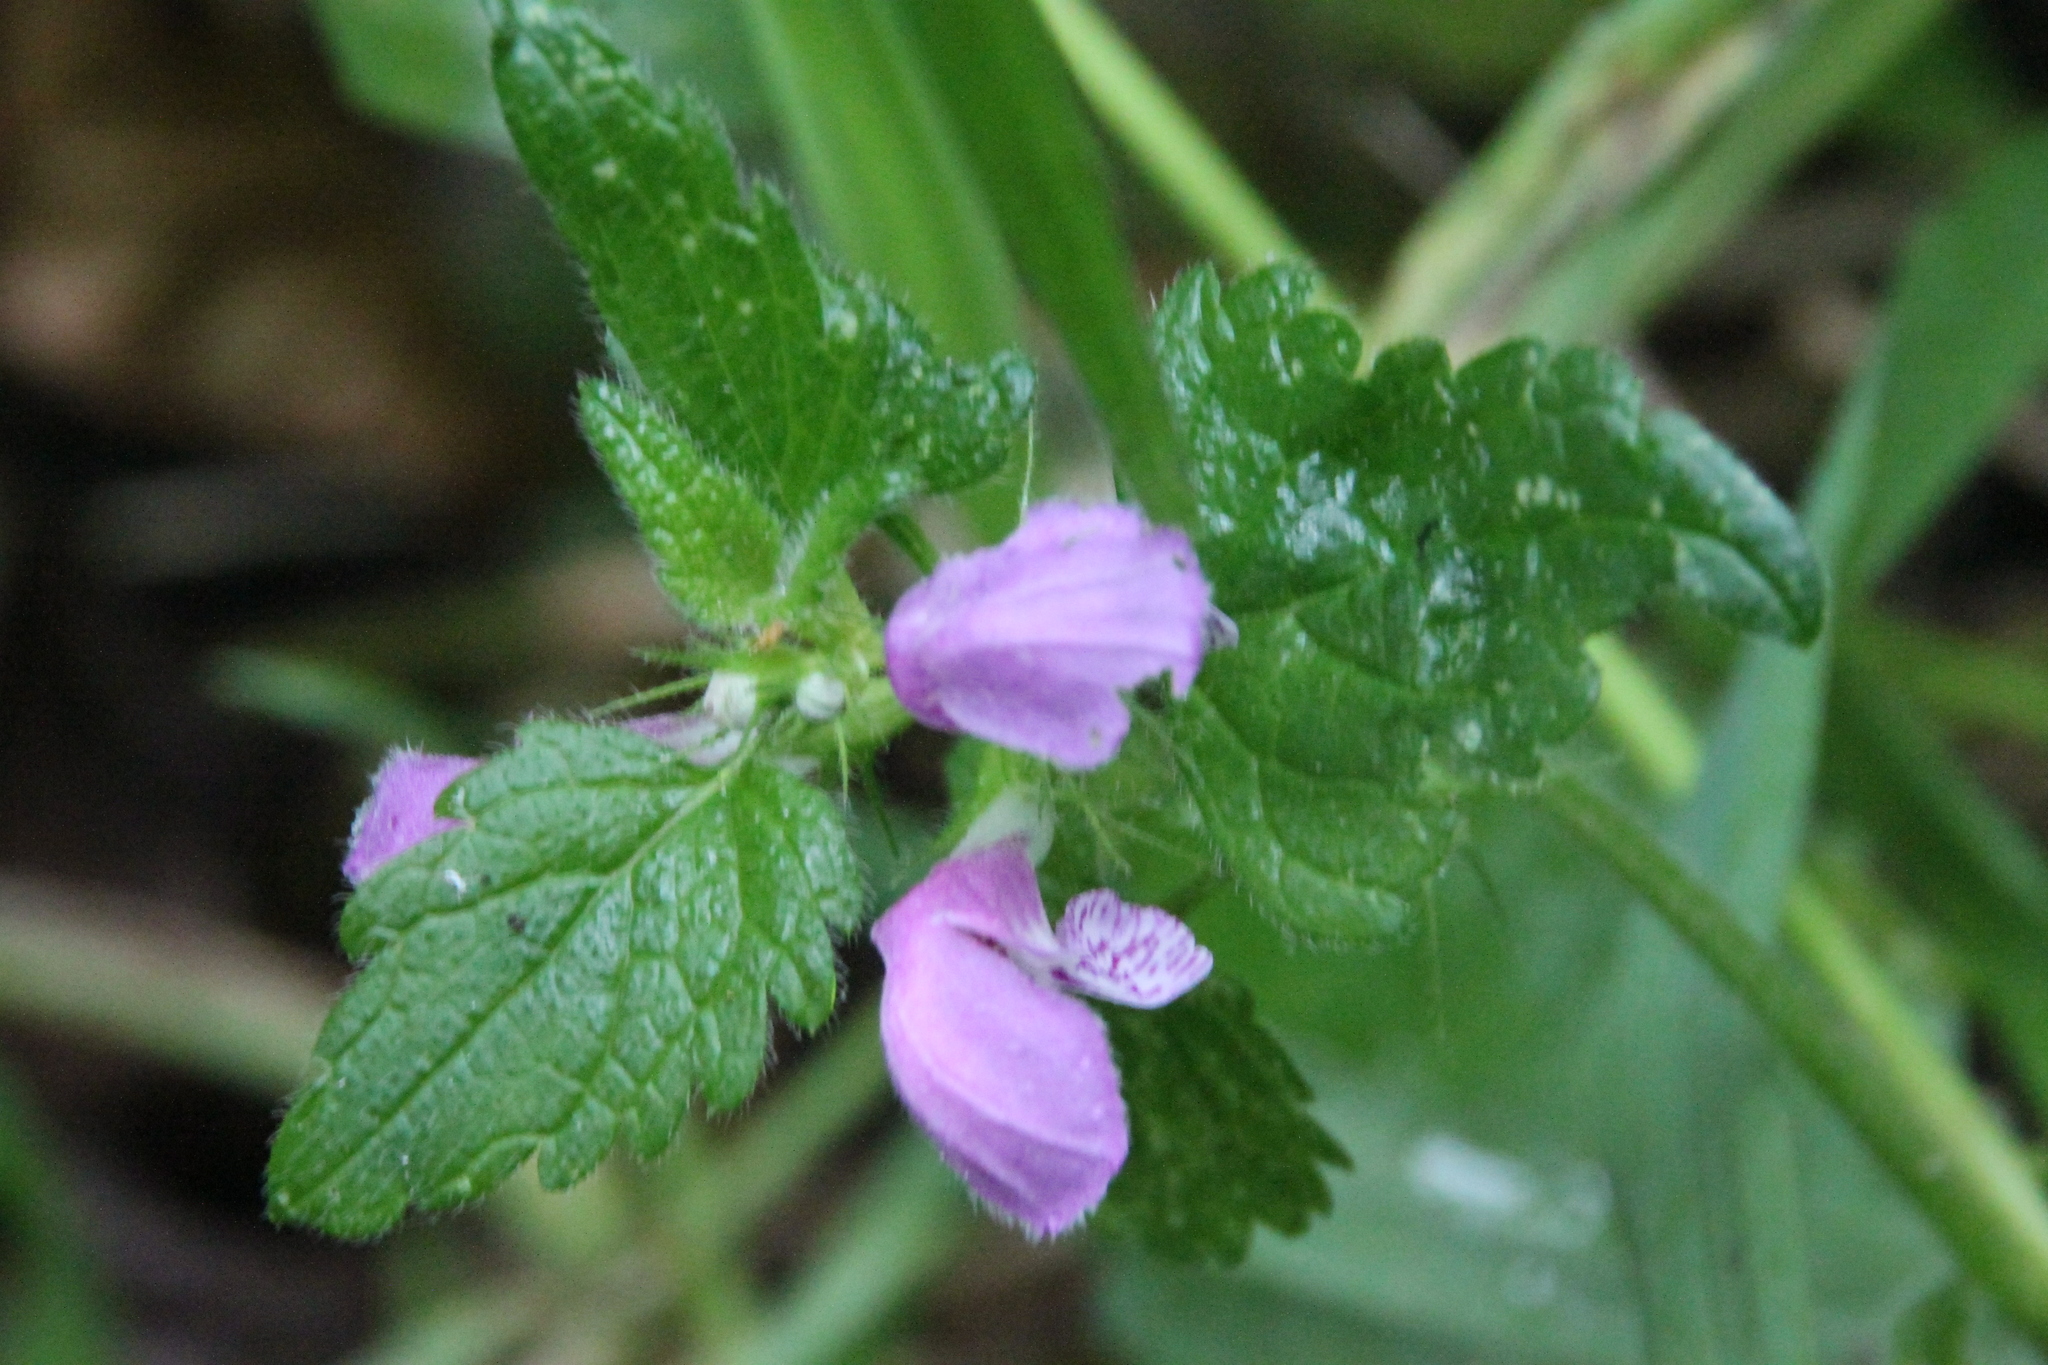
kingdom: Plantae
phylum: Tracheophyta
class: Magnoliopsida
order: Lamiales
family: Lamiaceae
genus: Lamium
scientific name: Lamium maculatum
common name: Spotted dead-nettle
